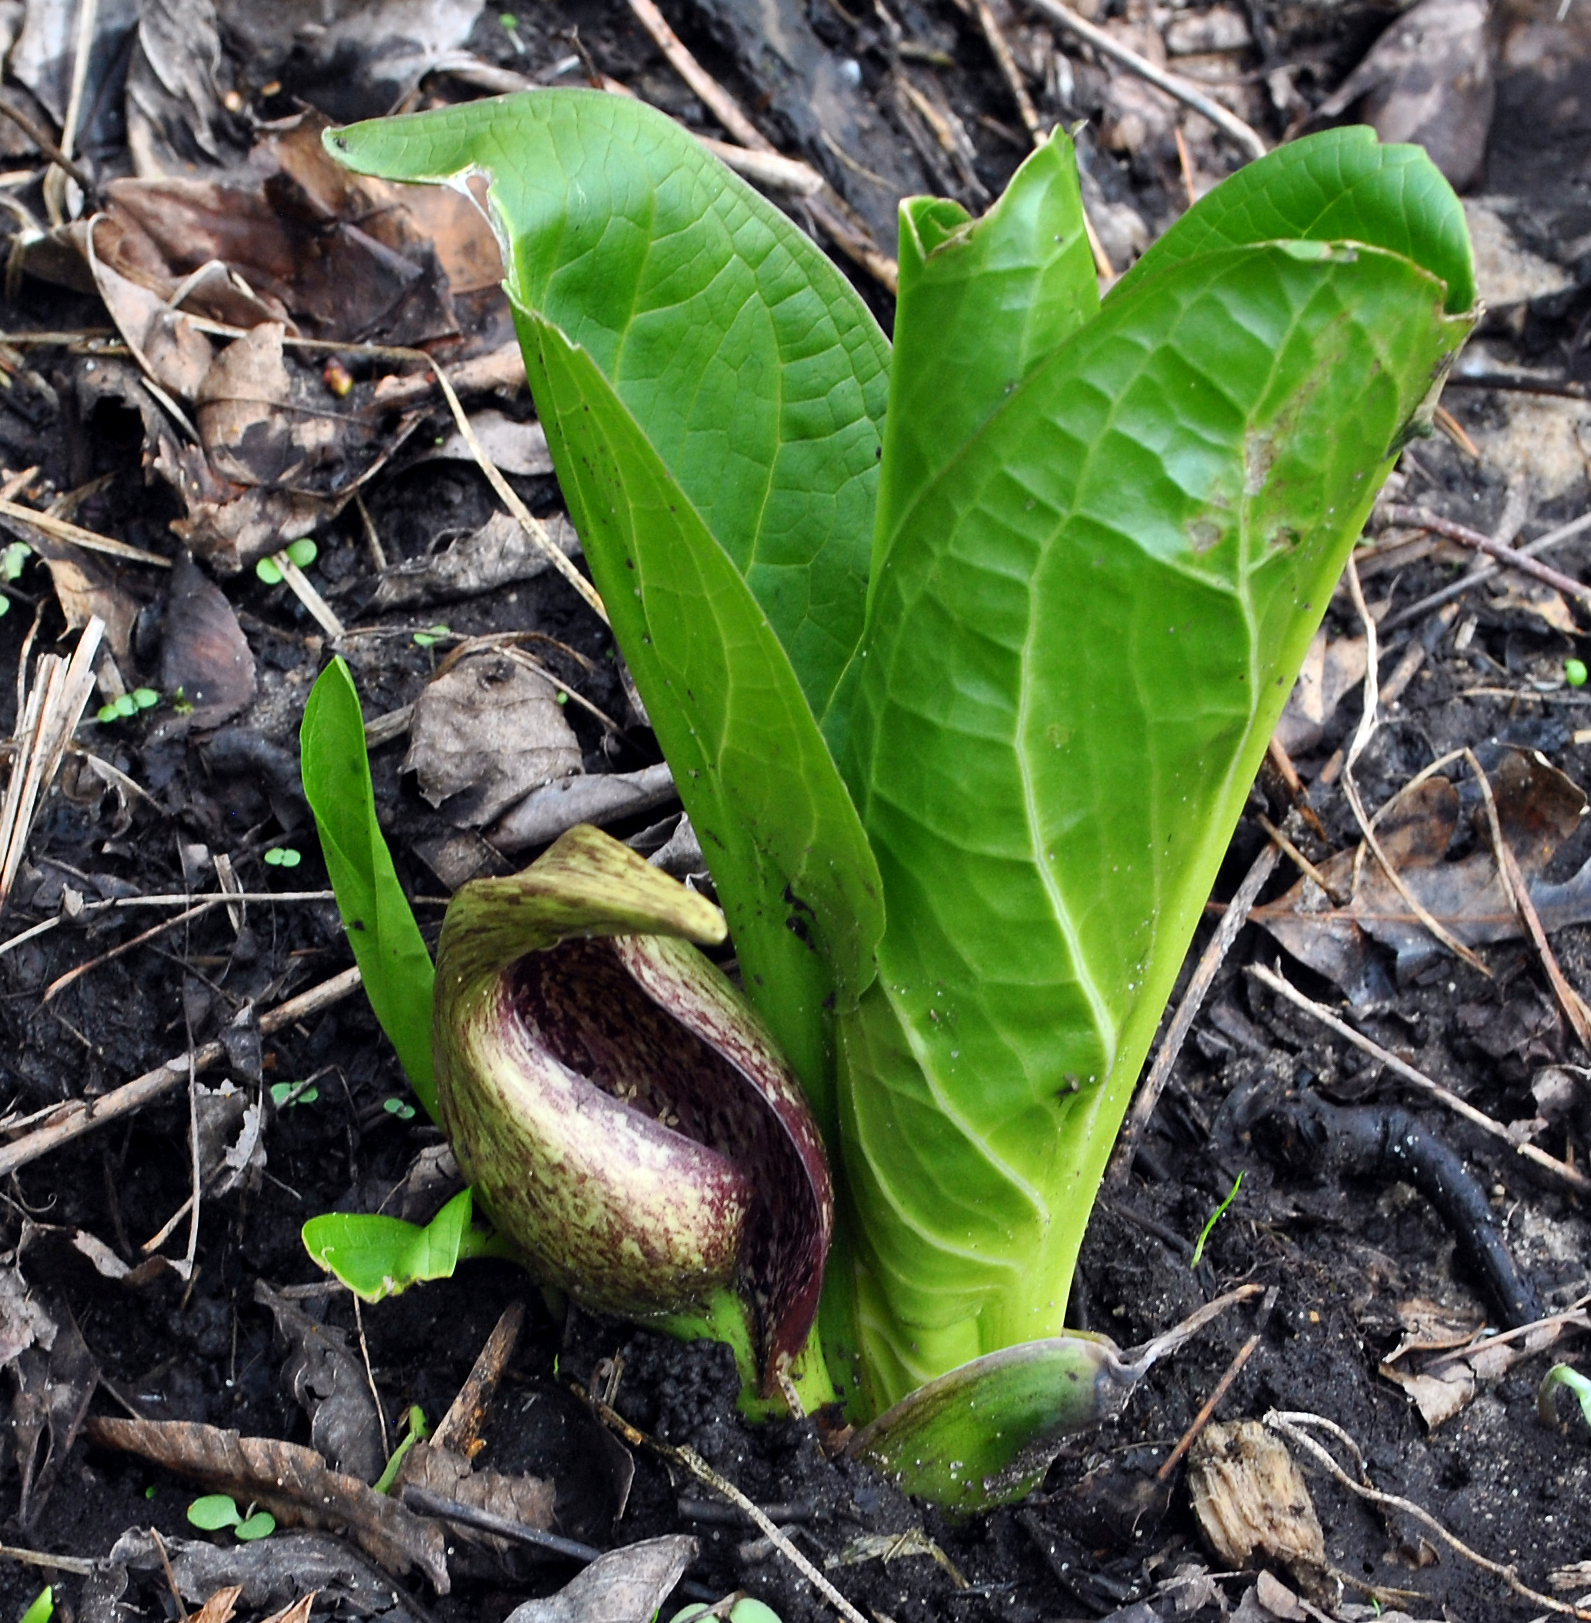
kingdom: Plantae
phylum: Tracheophyta
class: Liliopsida
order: Alismatales
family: Araceae
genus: Symplocarpus
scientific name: Symplocarpus foetidus
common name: Eastern skunk cabbage
